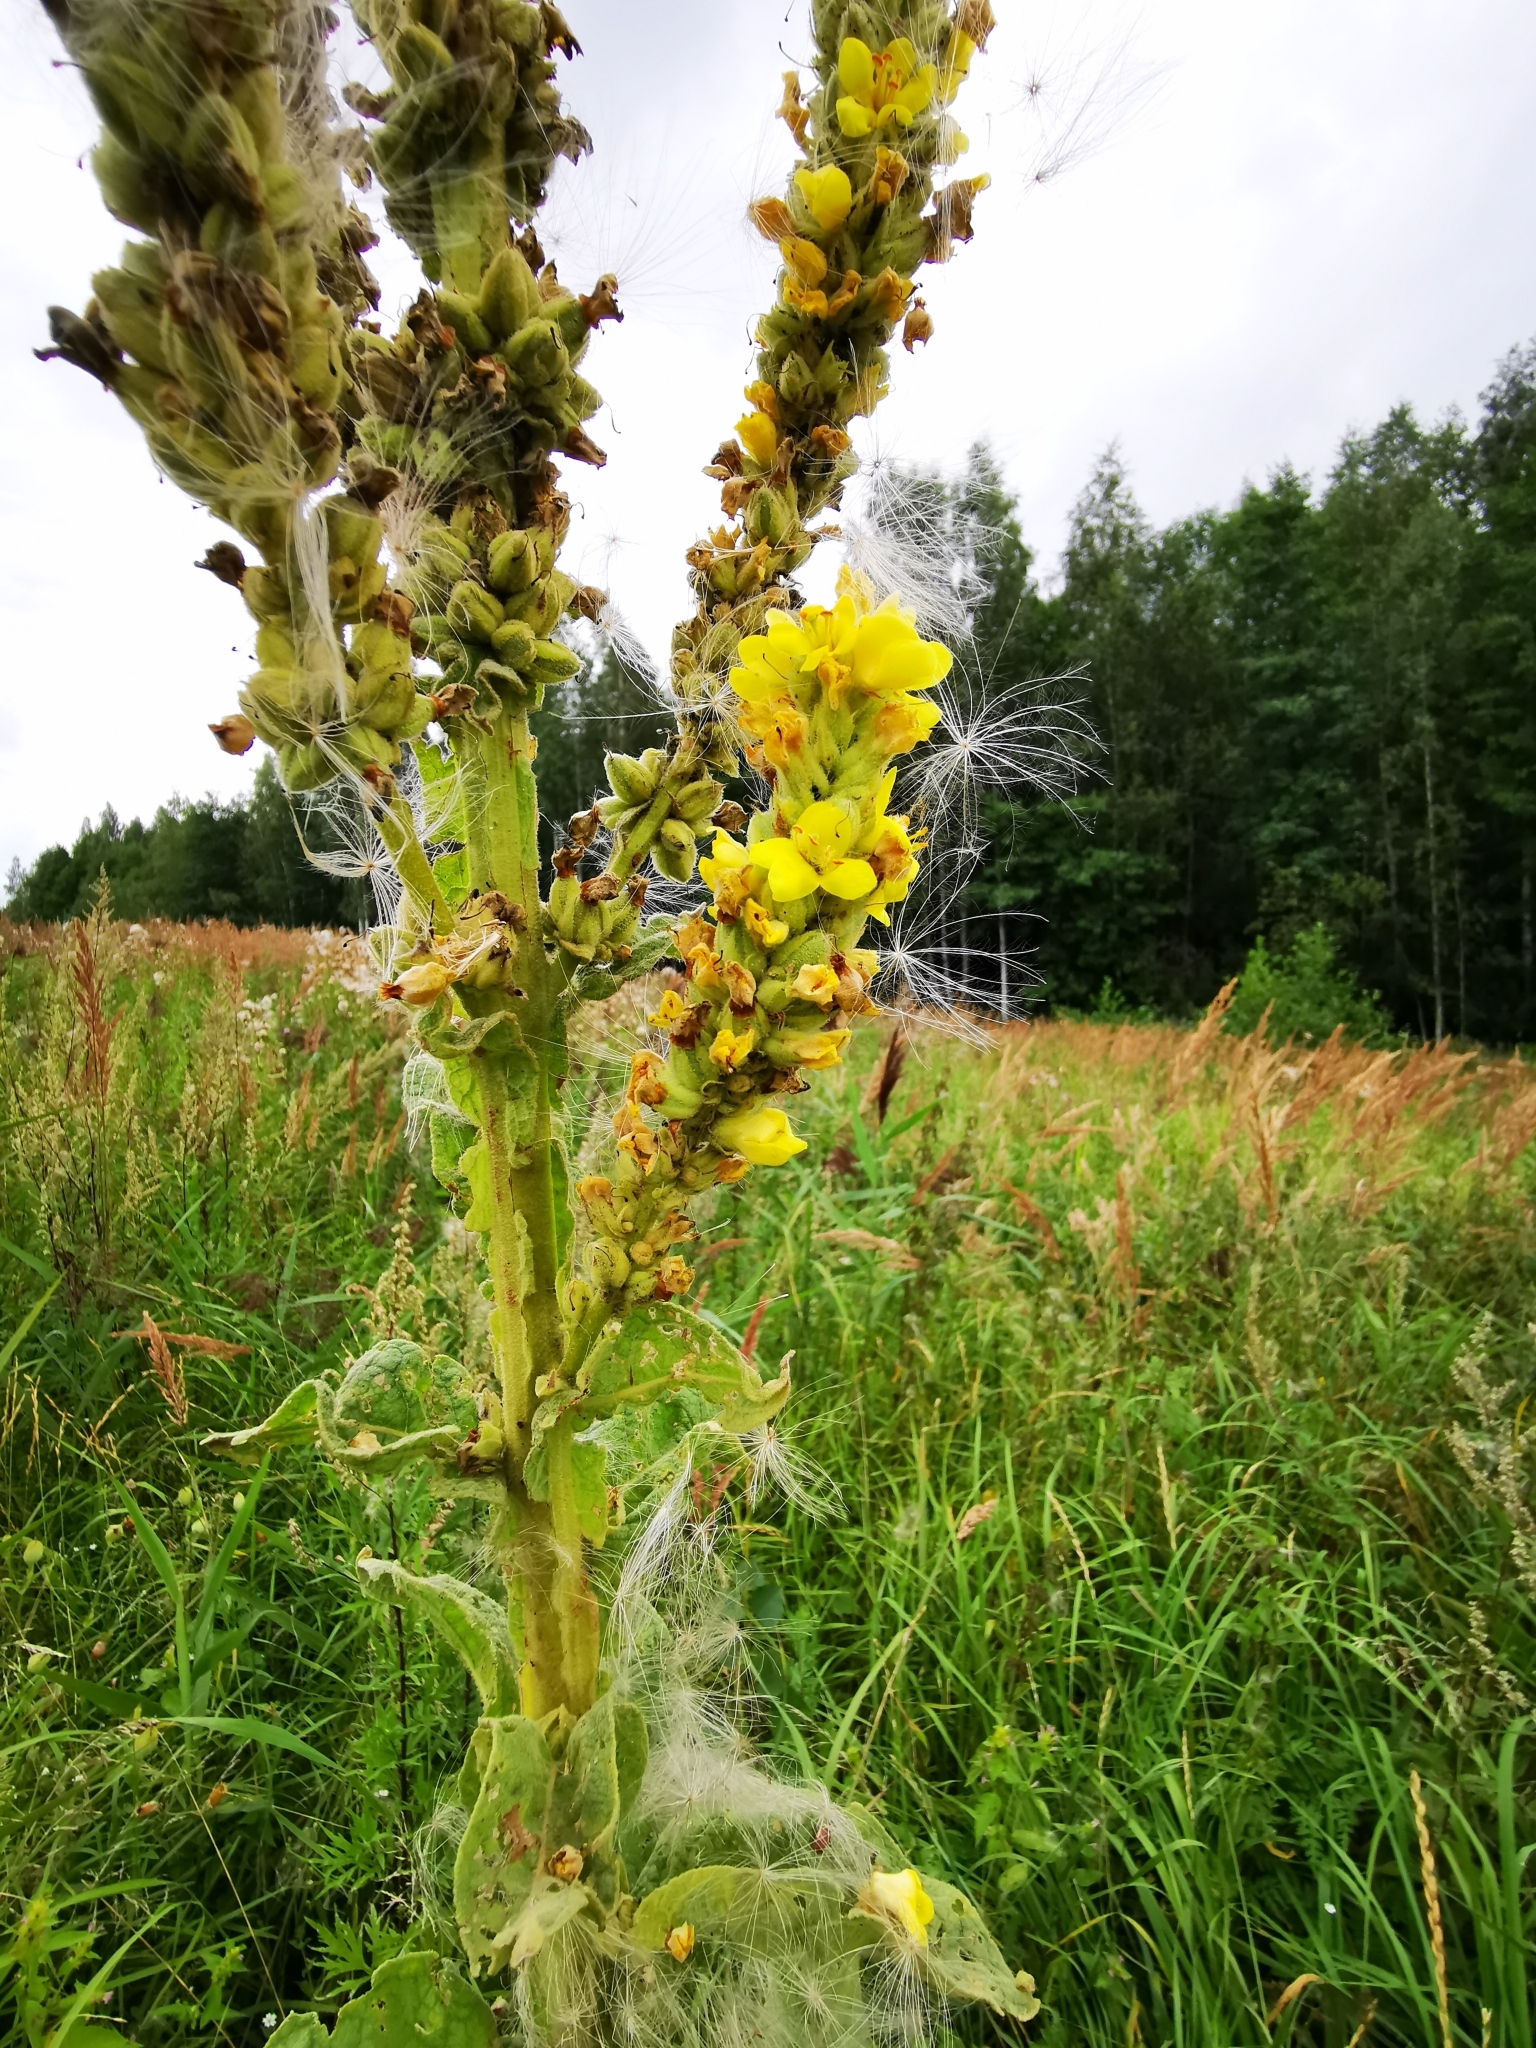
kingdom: Plantae
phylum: Tracheophyta
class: Magnoliopsida
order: Lamiales
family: Scrophulariaceae
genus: Verbascum
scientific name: Verbascum thapsus
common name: Common mullein
